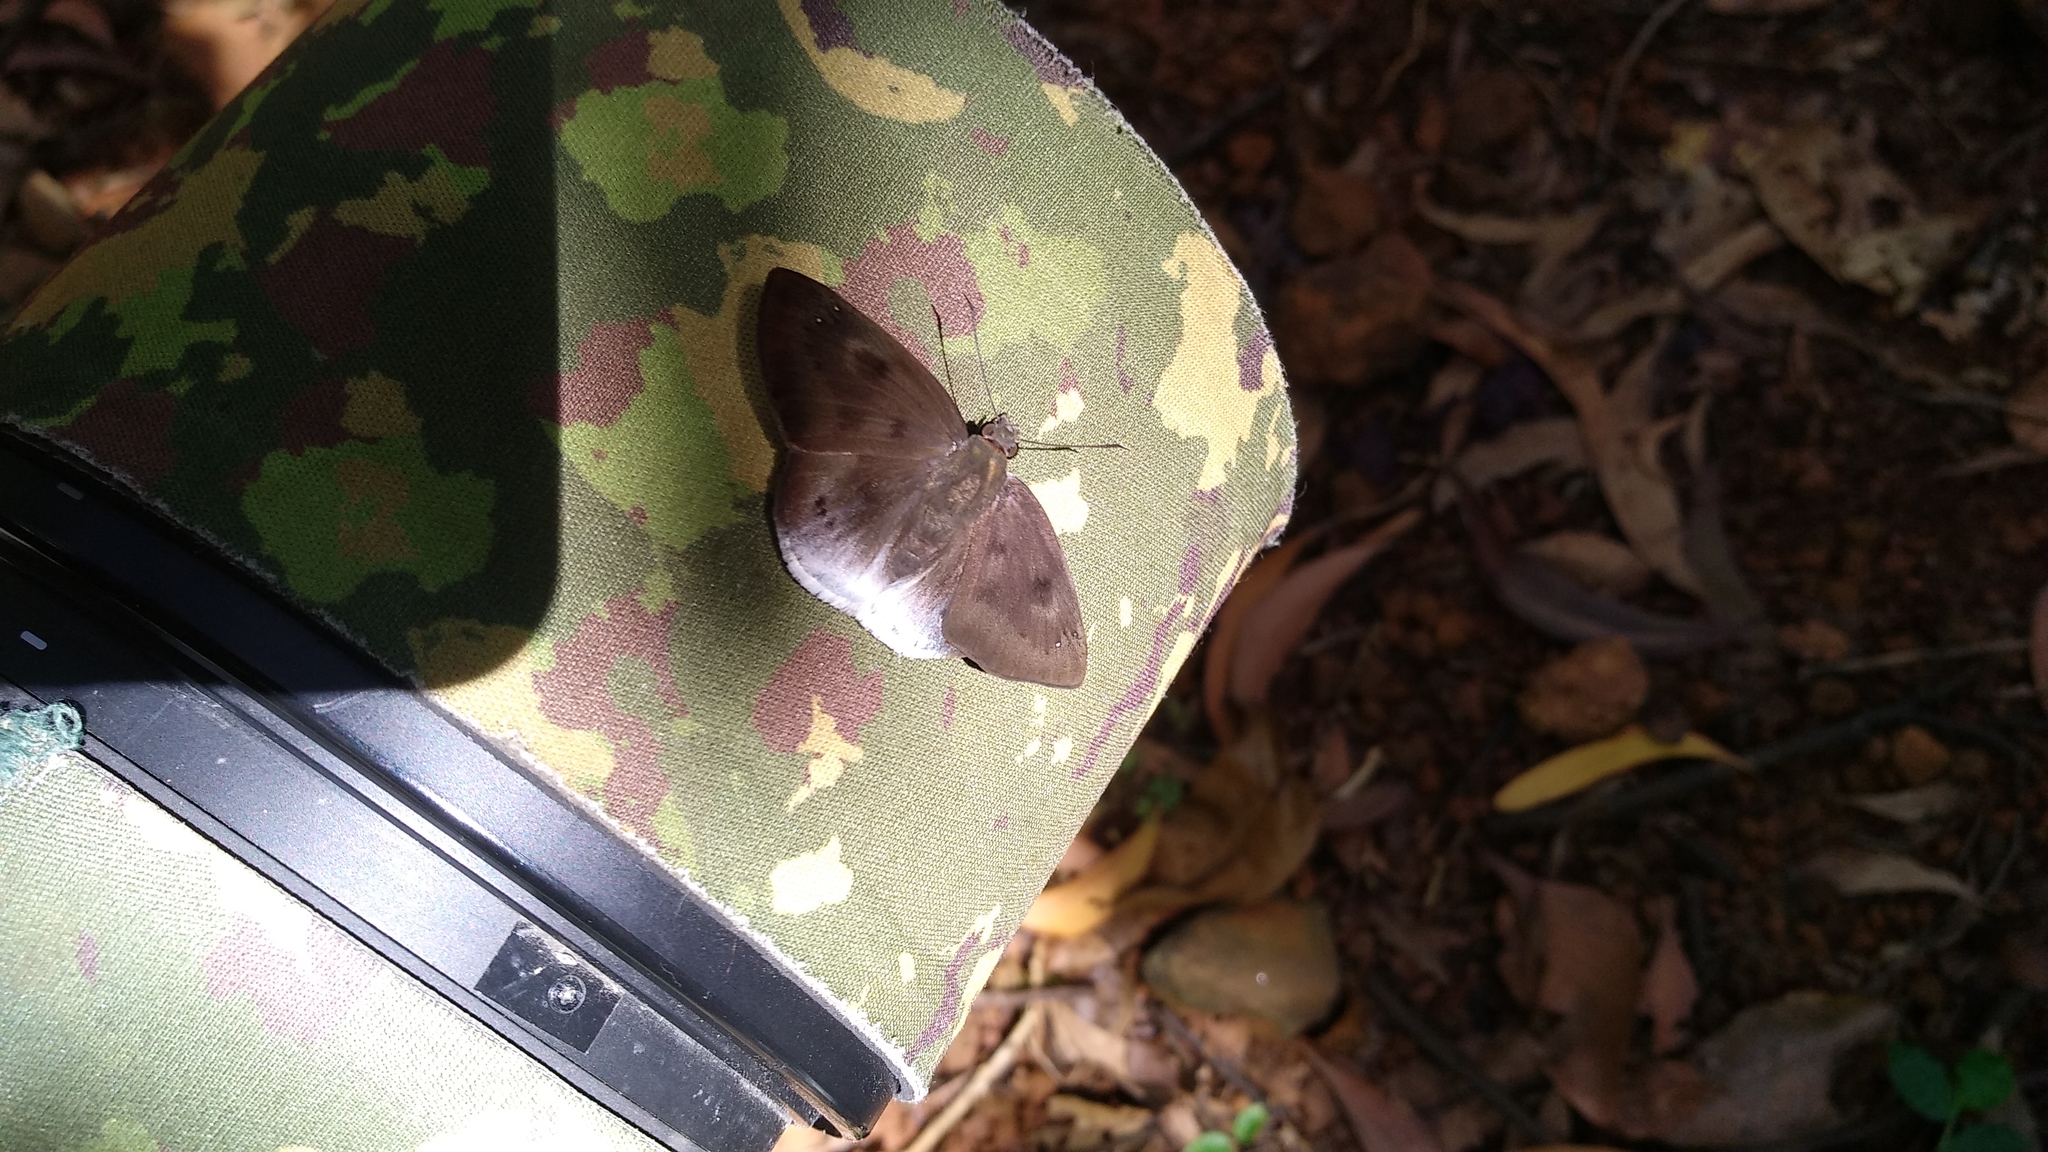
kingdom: Animalia
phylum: Arthropoda
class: Insecta
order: Lepidoptera
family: Hesperiidae
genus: Tagiades
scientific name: Tagiades gana
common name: Suffused snow flat
